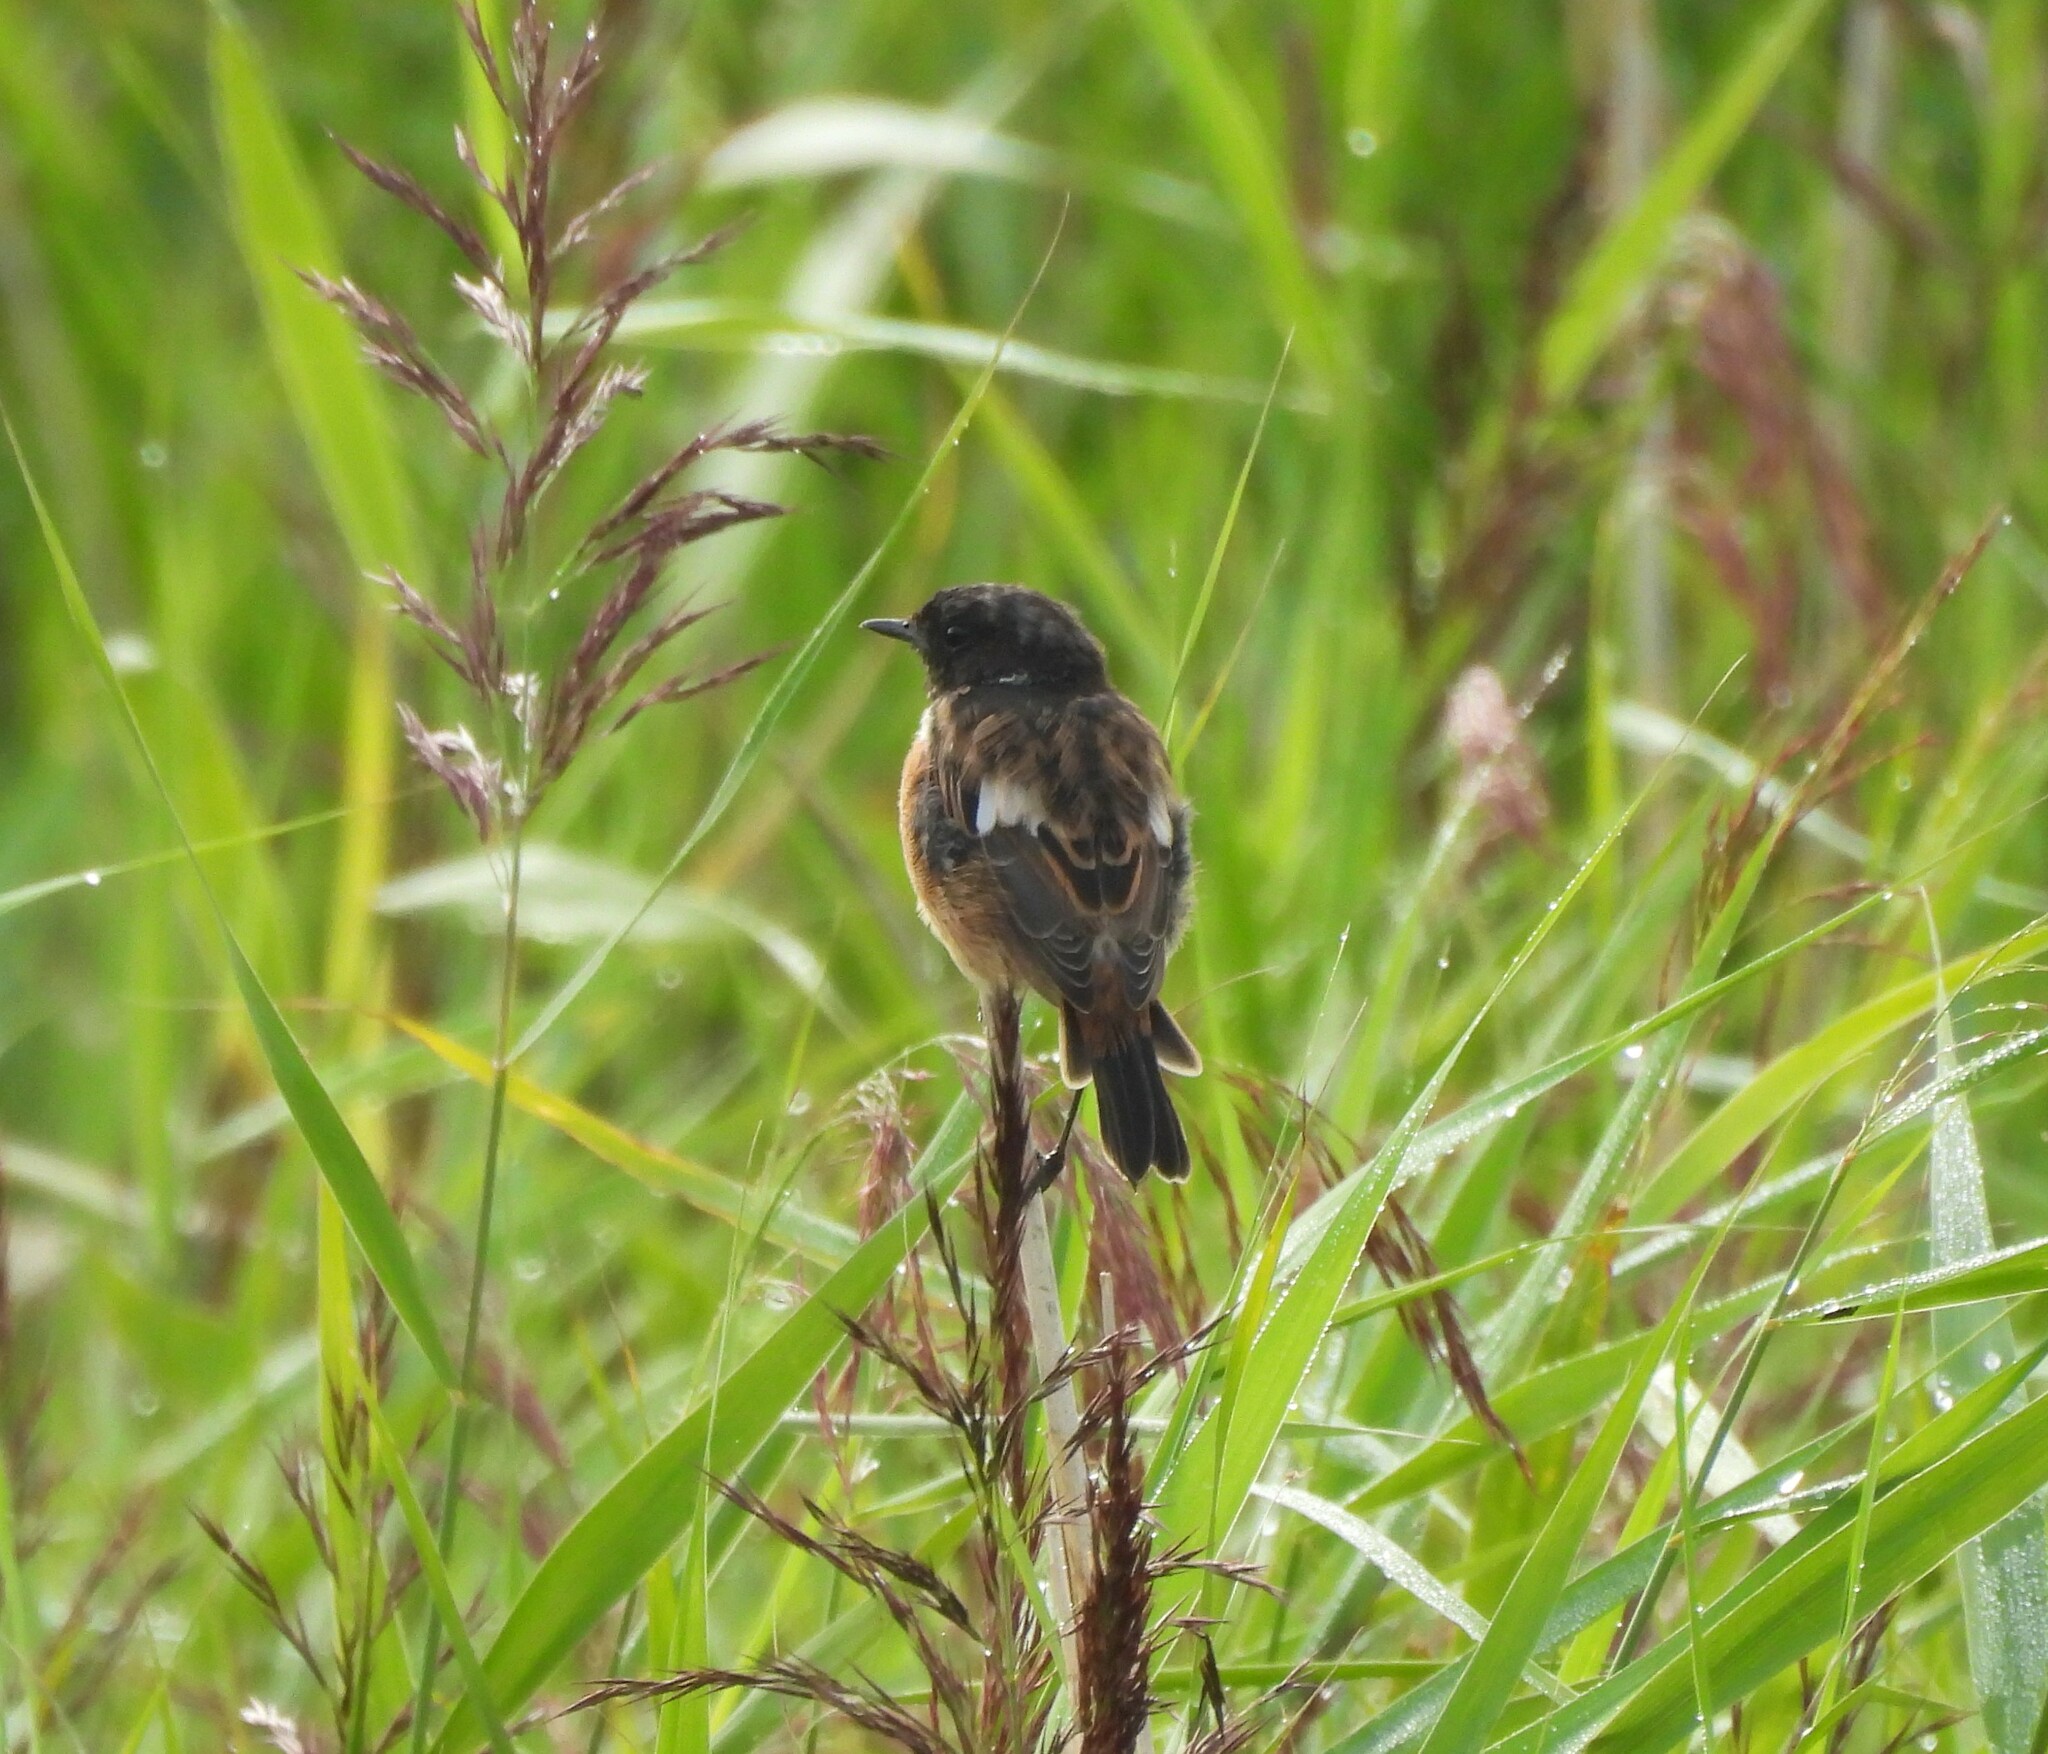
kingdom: Animalia
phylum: Chordata
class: Aves
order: Passeriformes
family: Muscicapidae
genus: Saxicola
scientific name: Saxicola rubicola
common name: European stonechat
